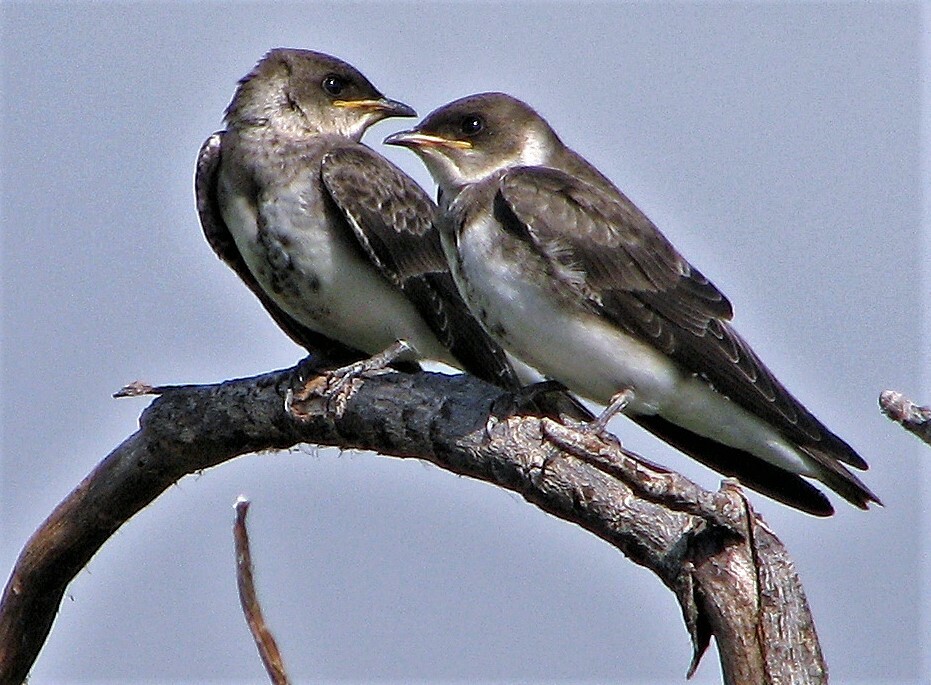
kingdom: Animalia
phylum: Chordata
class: Aves
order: Passeriformes
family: Hirundinidae
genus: Progne
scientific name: Progne tapera
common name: Brown-chested martin
